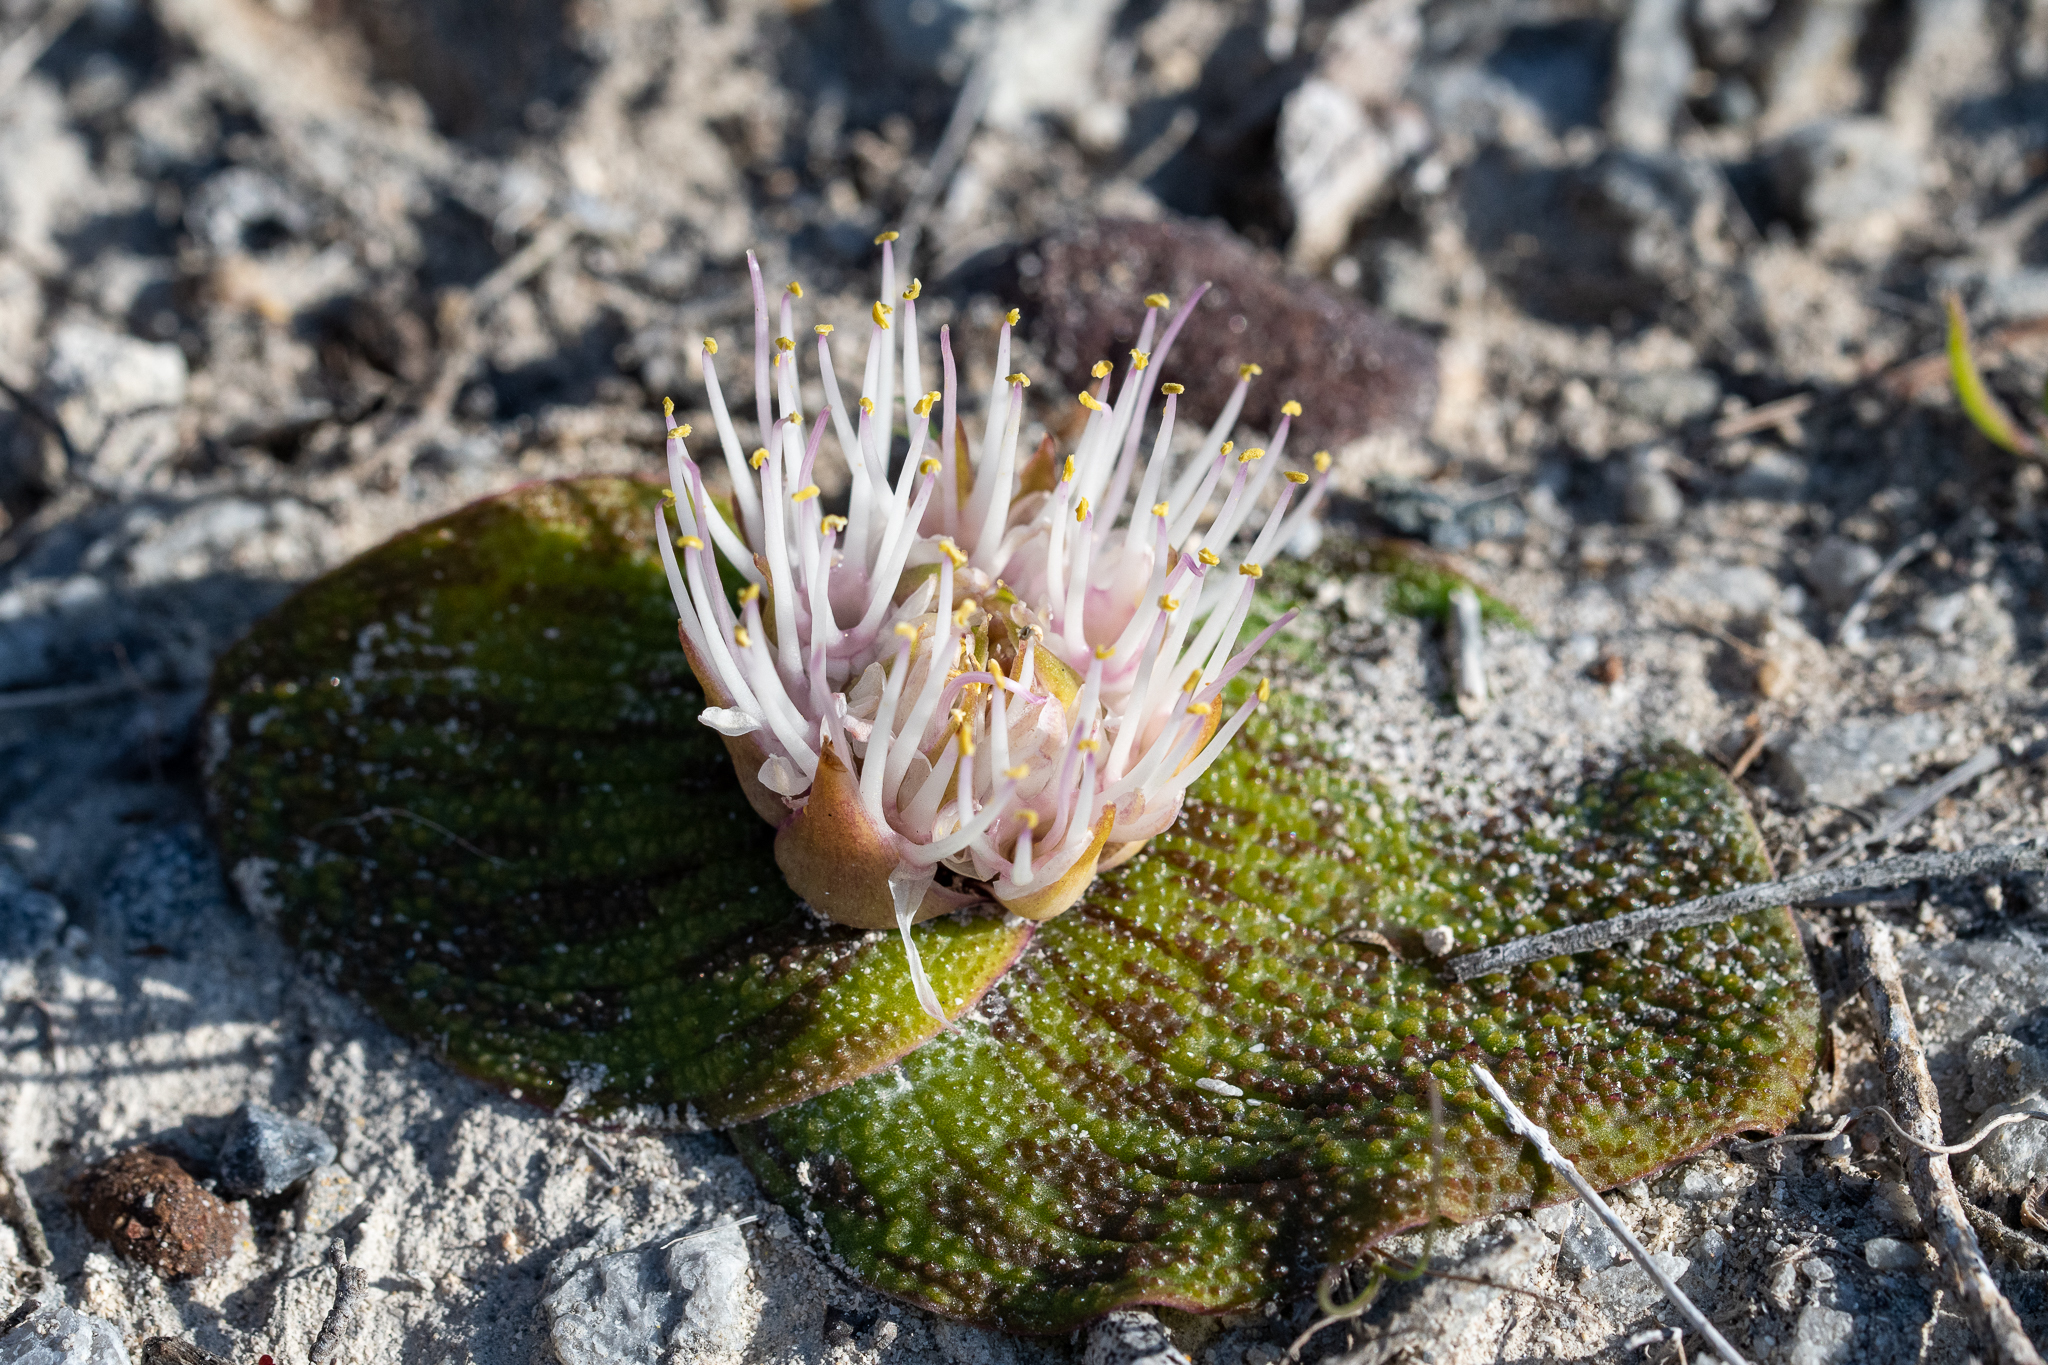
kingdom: Plantae
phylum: Tracheophyta
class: Liliopsida
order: Asparagales
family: Asparagaceae
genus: Massonia
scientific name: Massonia longipes
